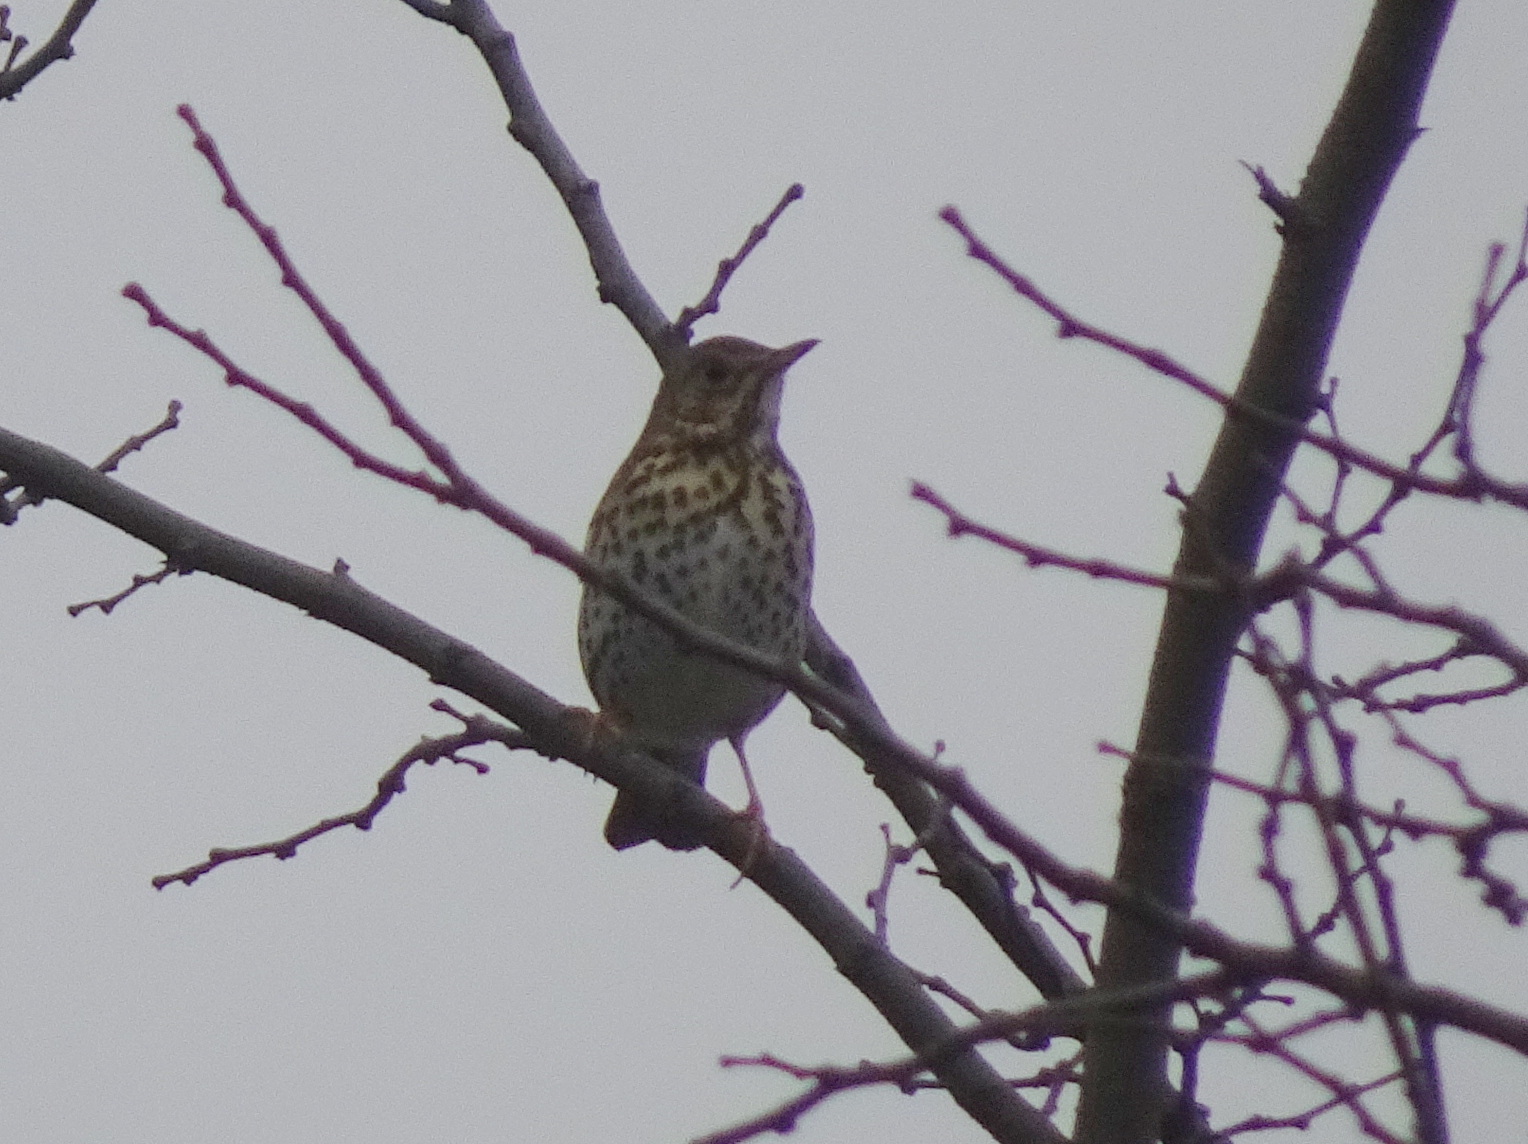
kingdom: Animalia
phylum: Chordata
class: Aves
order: Passeriformes
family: Turdidae
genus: Turdus
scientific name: Turdus philomelos
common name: Song thrush
